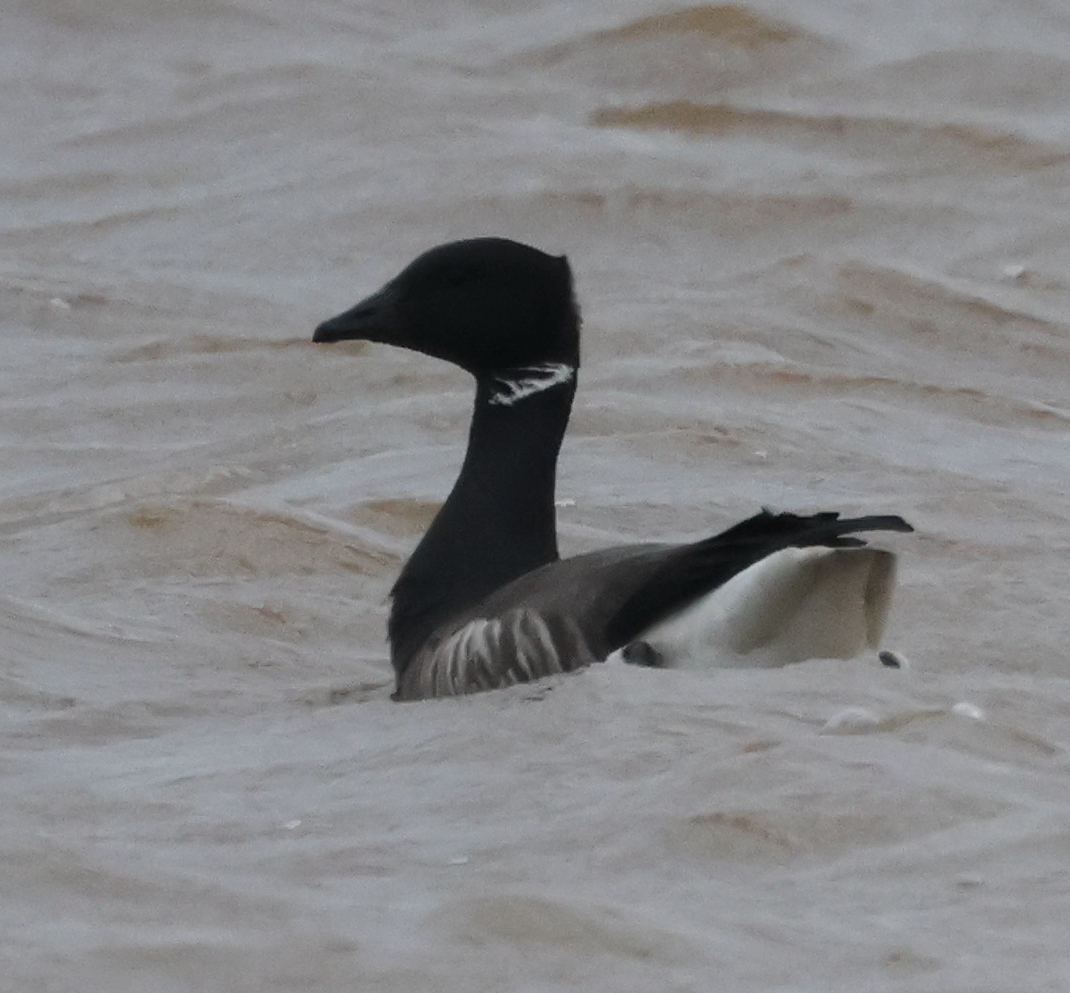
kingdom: Animalia
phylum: Chordata
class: Aves
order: Anseriformes
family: Anatidae
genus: Branta
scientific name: Branta bernicla
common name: Brant goose
